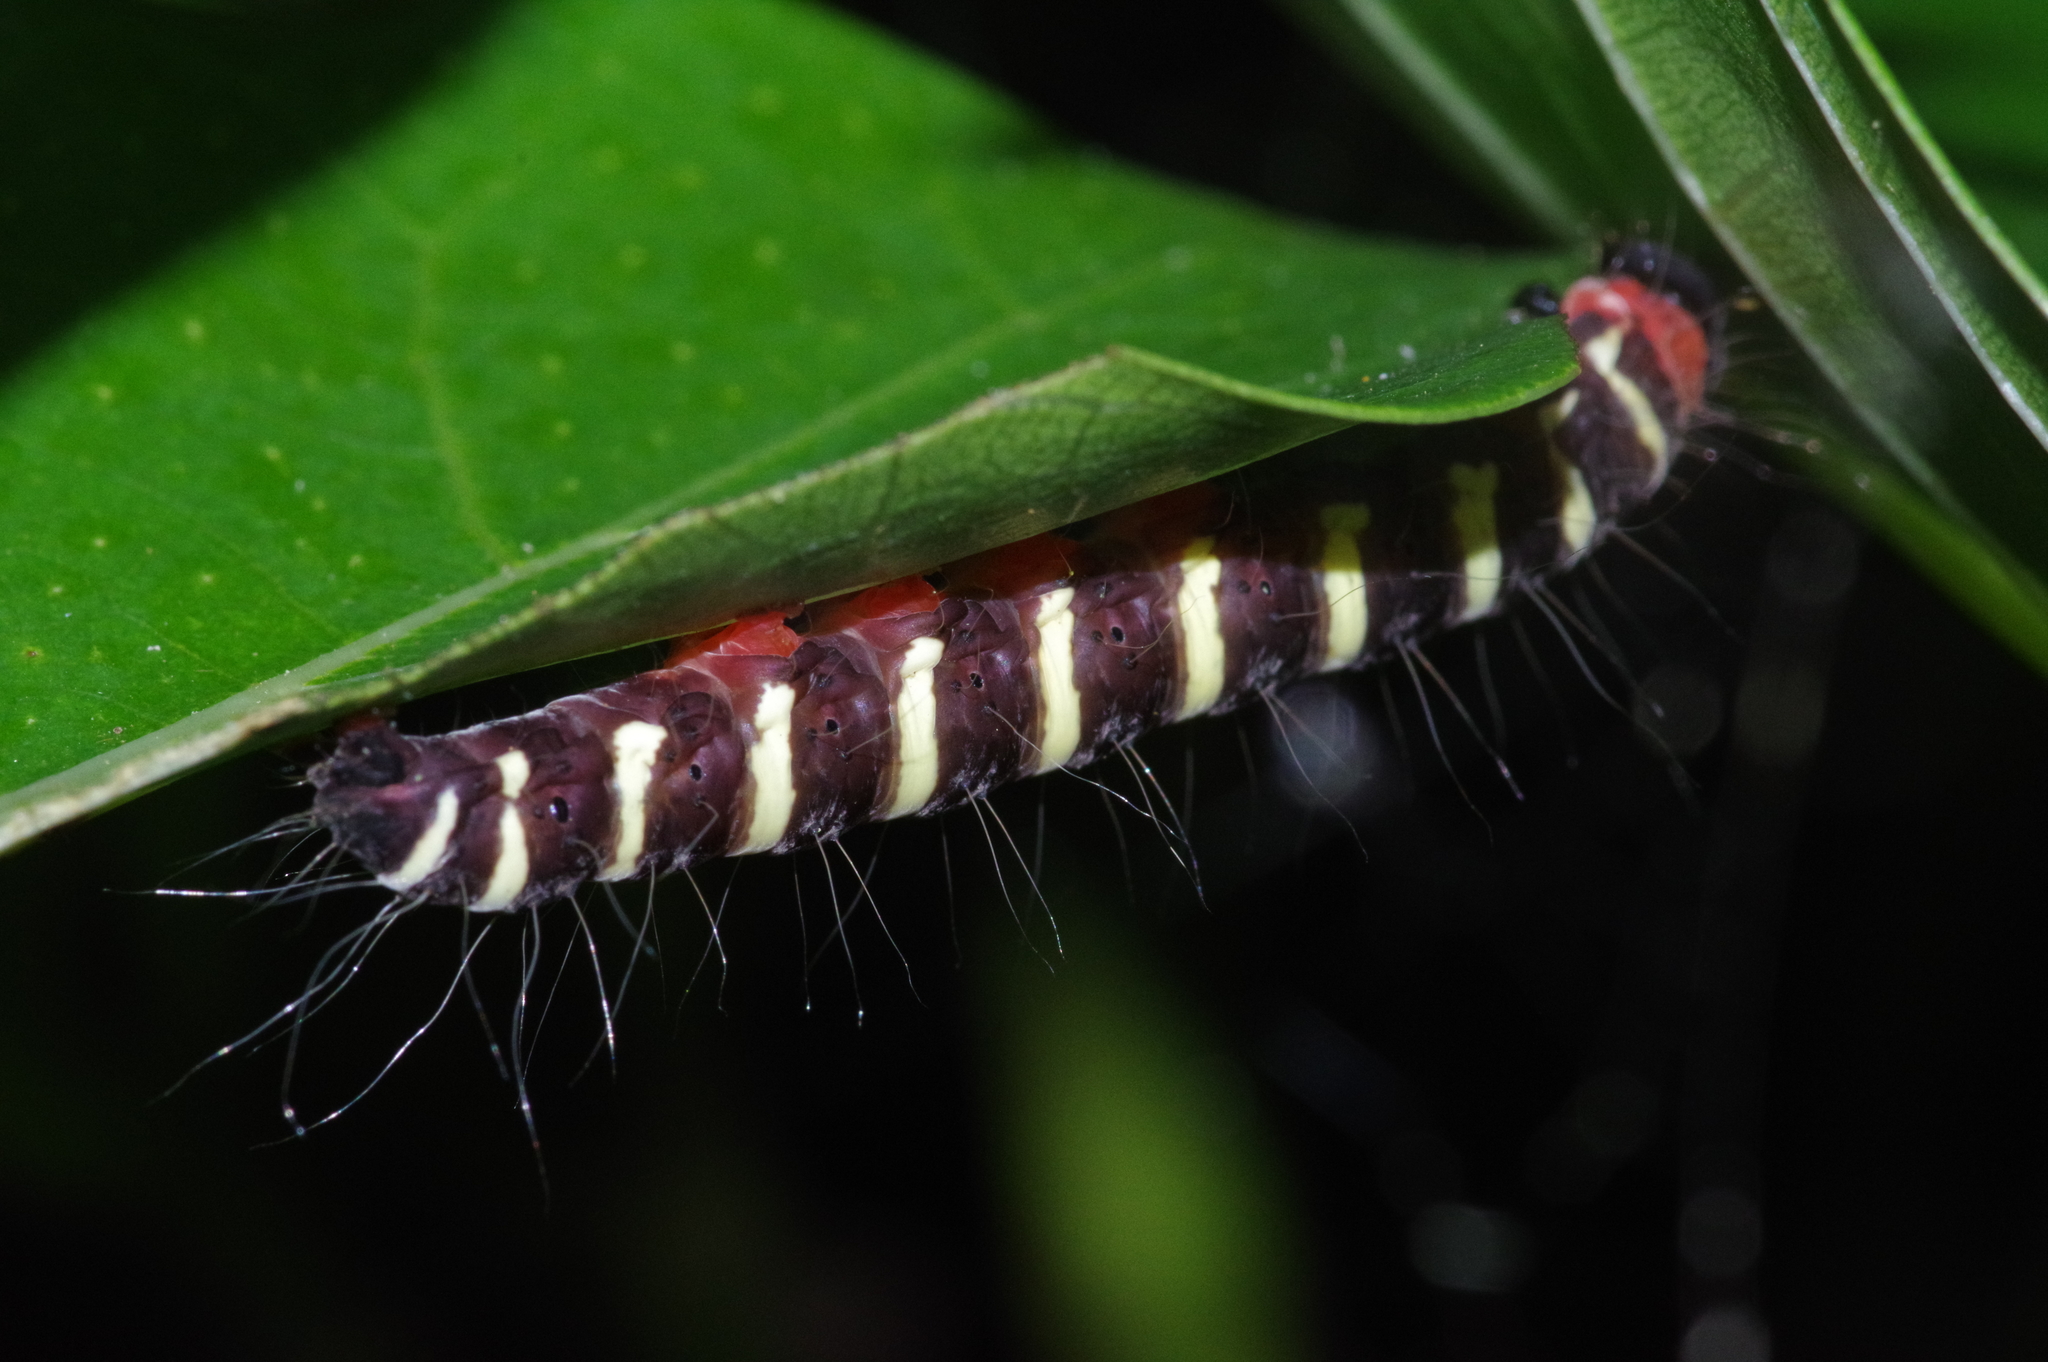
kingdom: Animalia
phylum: Arthropoda
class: Insecta
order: Lepidoptera
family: Erebidae
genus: Asota
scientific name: Asota plana
